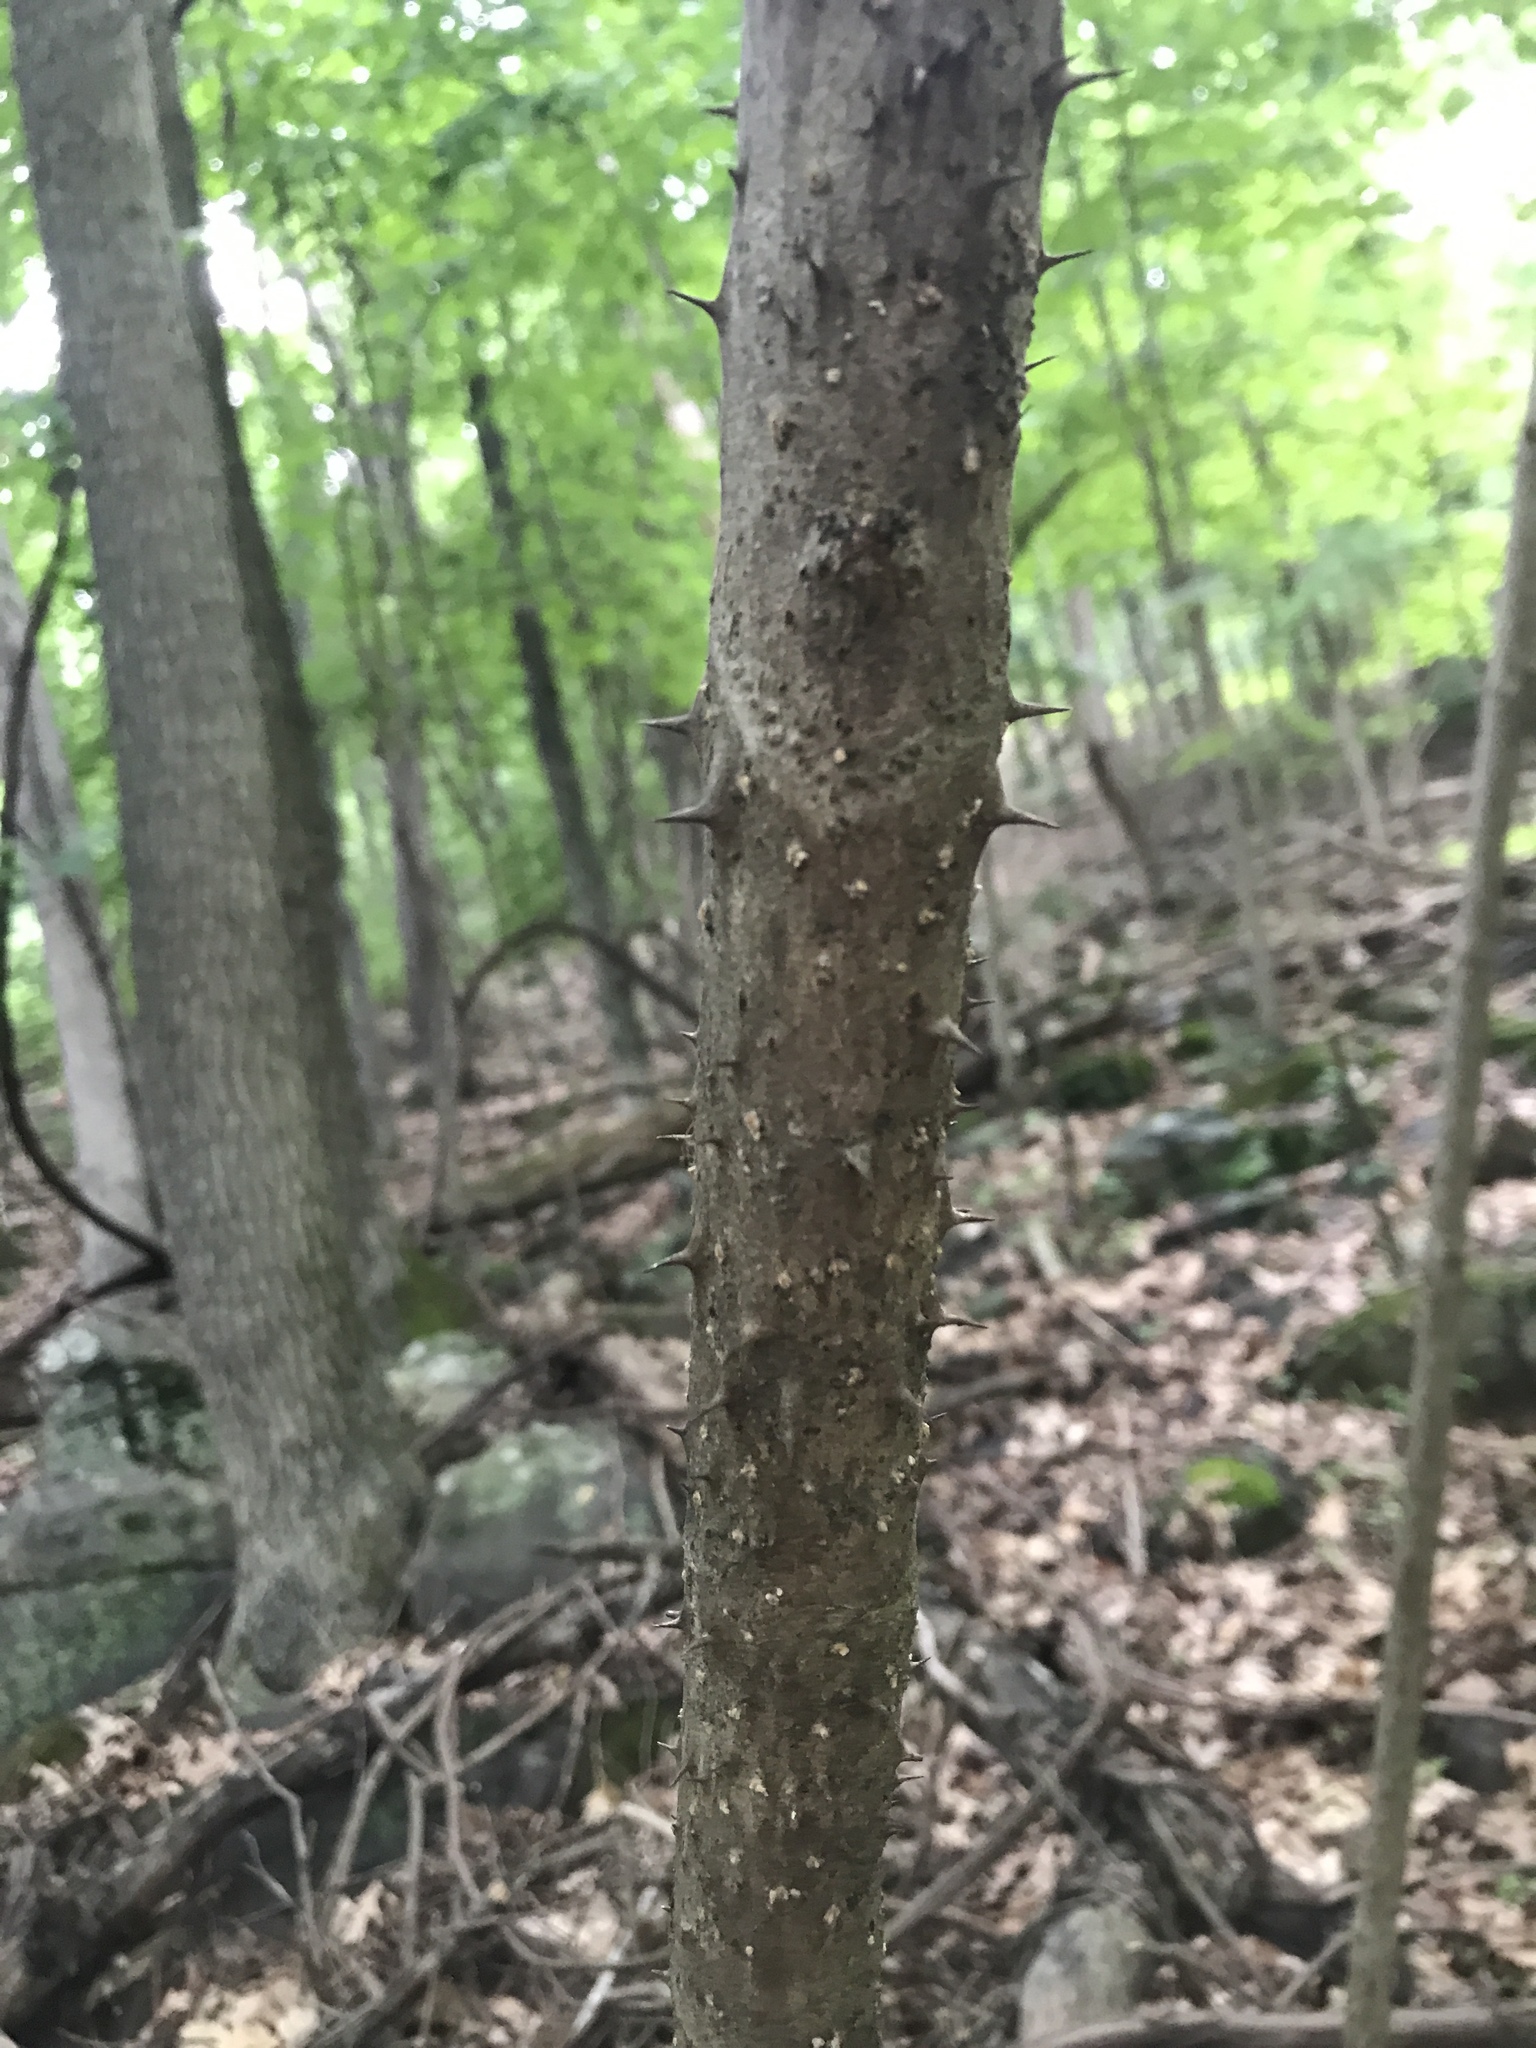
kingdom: Plantae
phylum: Tracheophyta
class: Magnoliopsida
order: Apiales
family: Araliaceae
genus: Aralia
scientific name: Aralia elata
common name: Japanese angelica-tree
